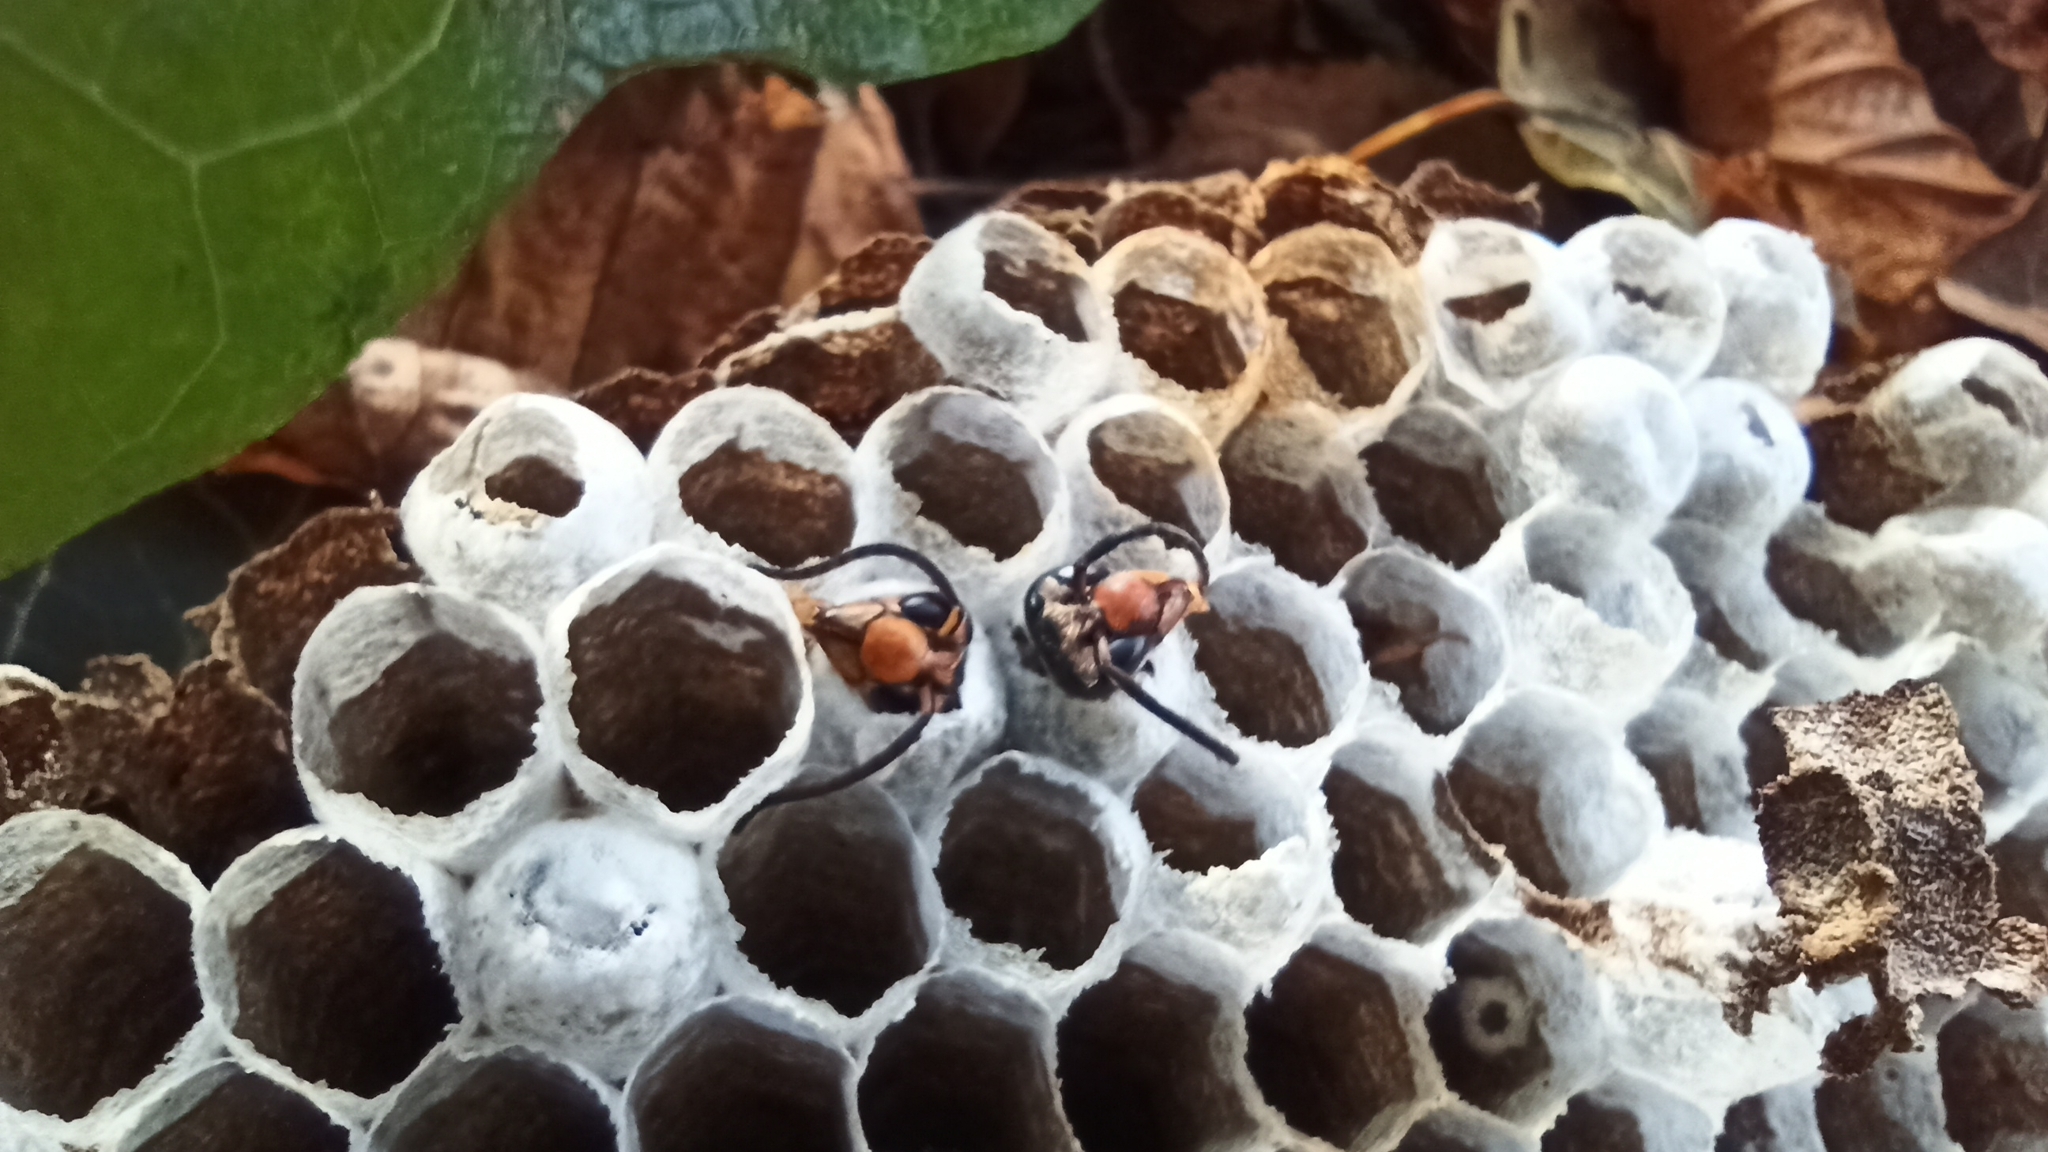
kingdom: Animalia
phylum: Arthropoda
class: Insecta
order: Hymenoptera
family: Vespidae
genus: Vespa
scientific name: Vespa velutina
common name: Asian hornet
